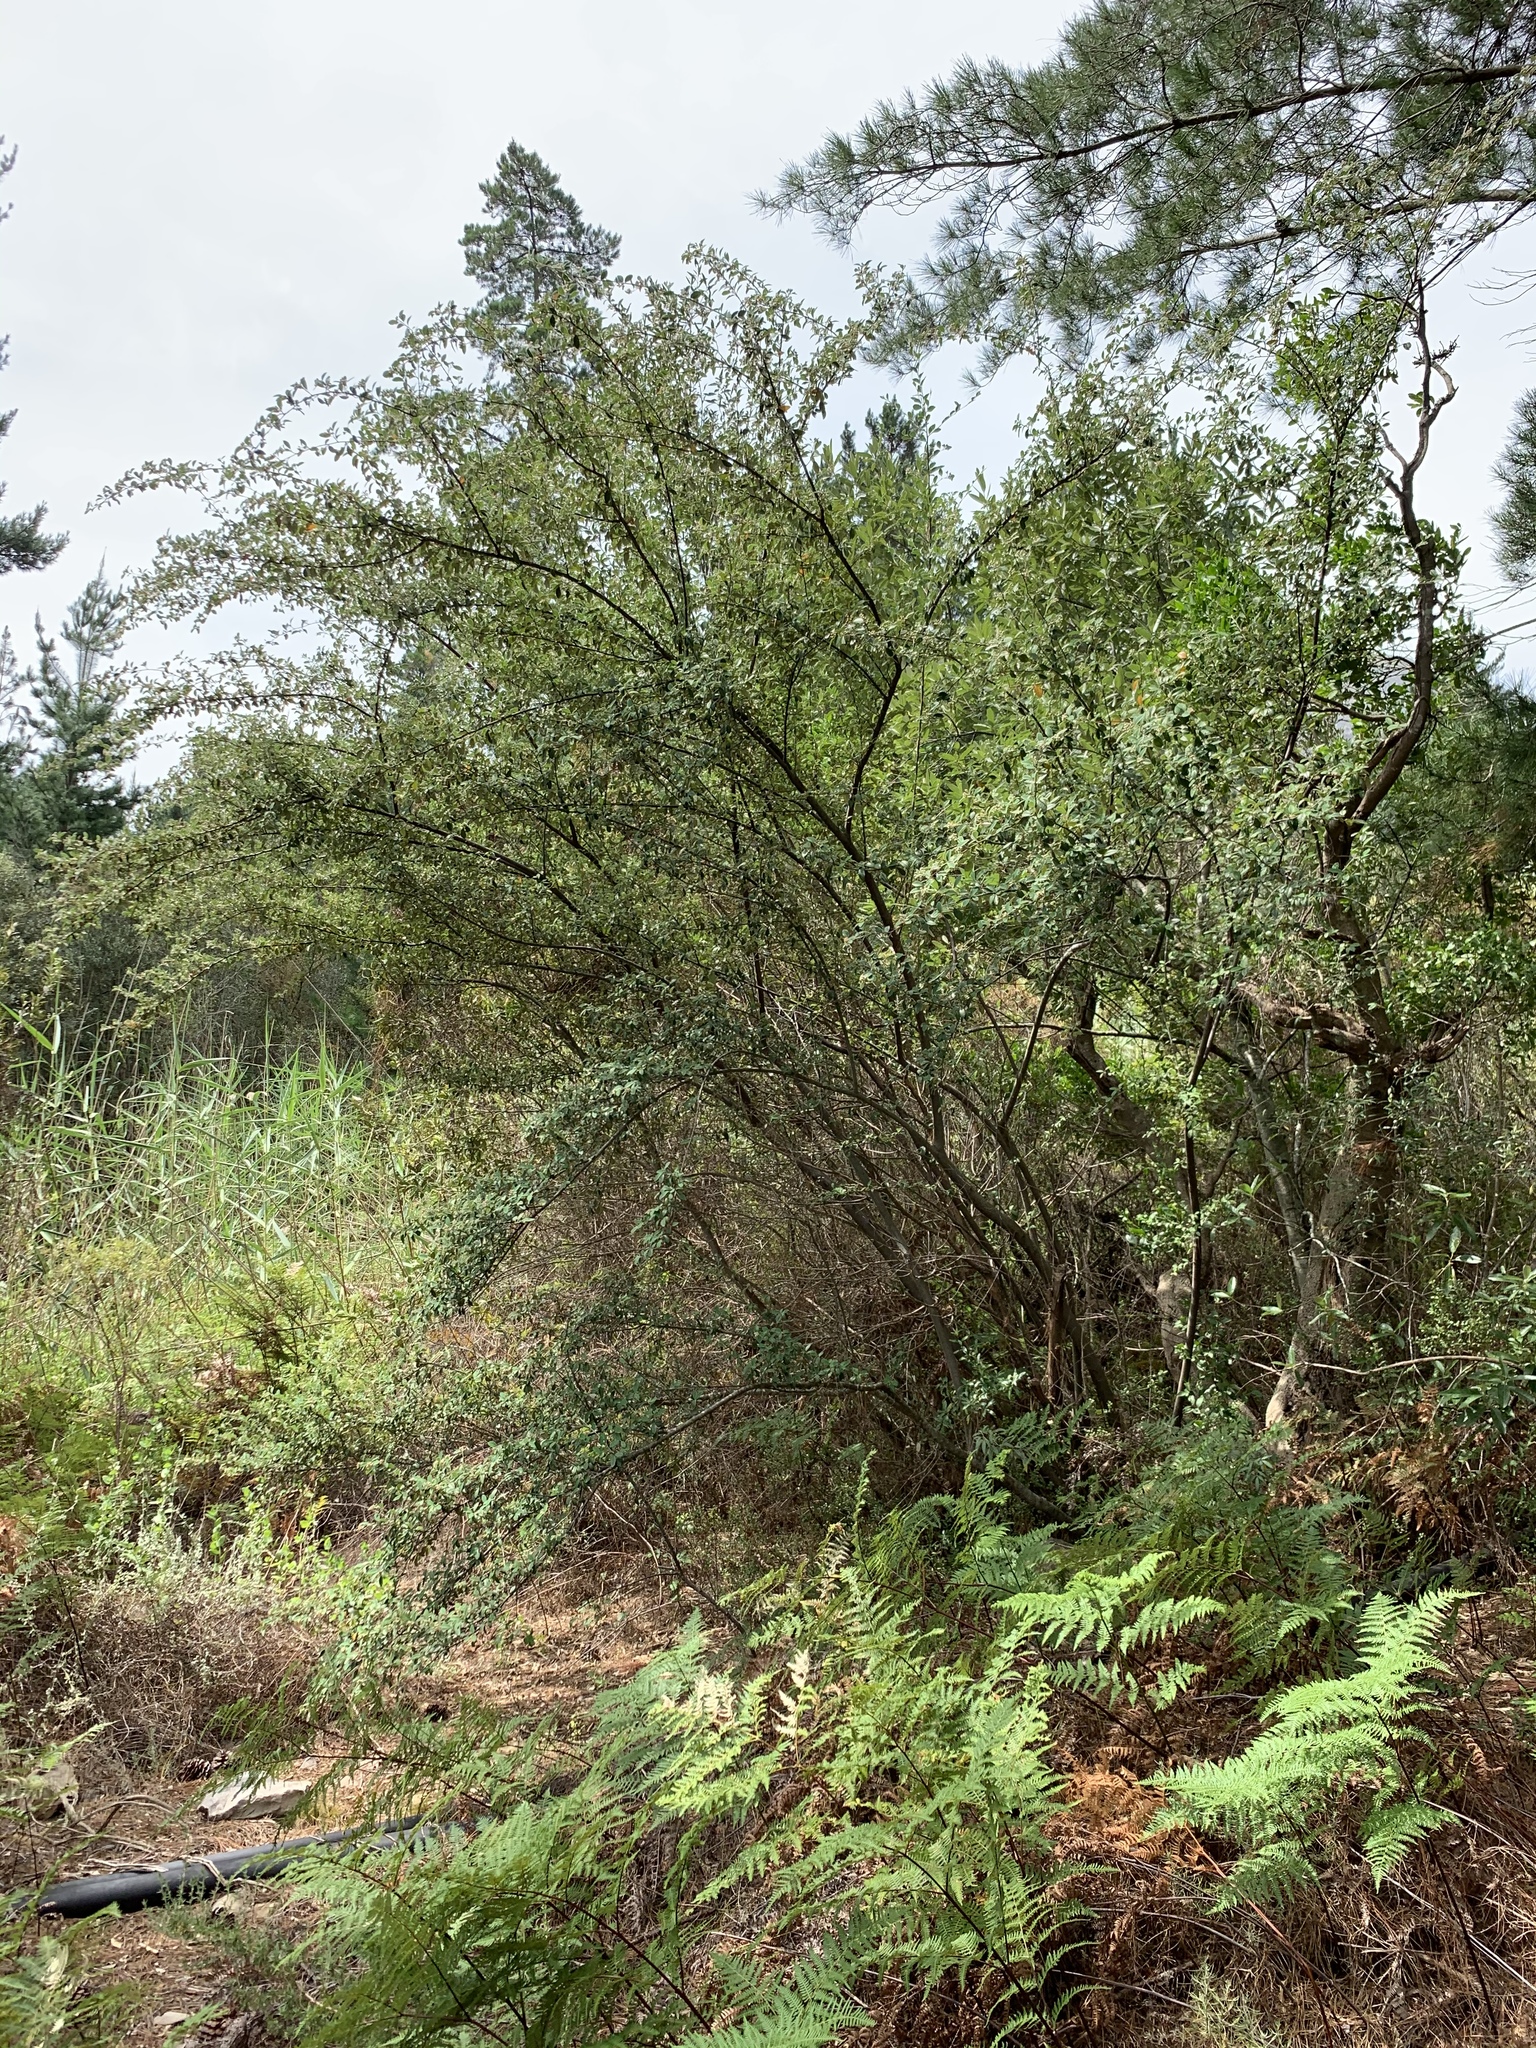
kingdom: Plantae
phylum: Tracheophyta
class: Magnoliopsida
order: Rosales
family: Rosaceae
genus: Cotoneaster
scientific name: Cotoneaster pannosus
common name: Silverleaf cotoneaster
